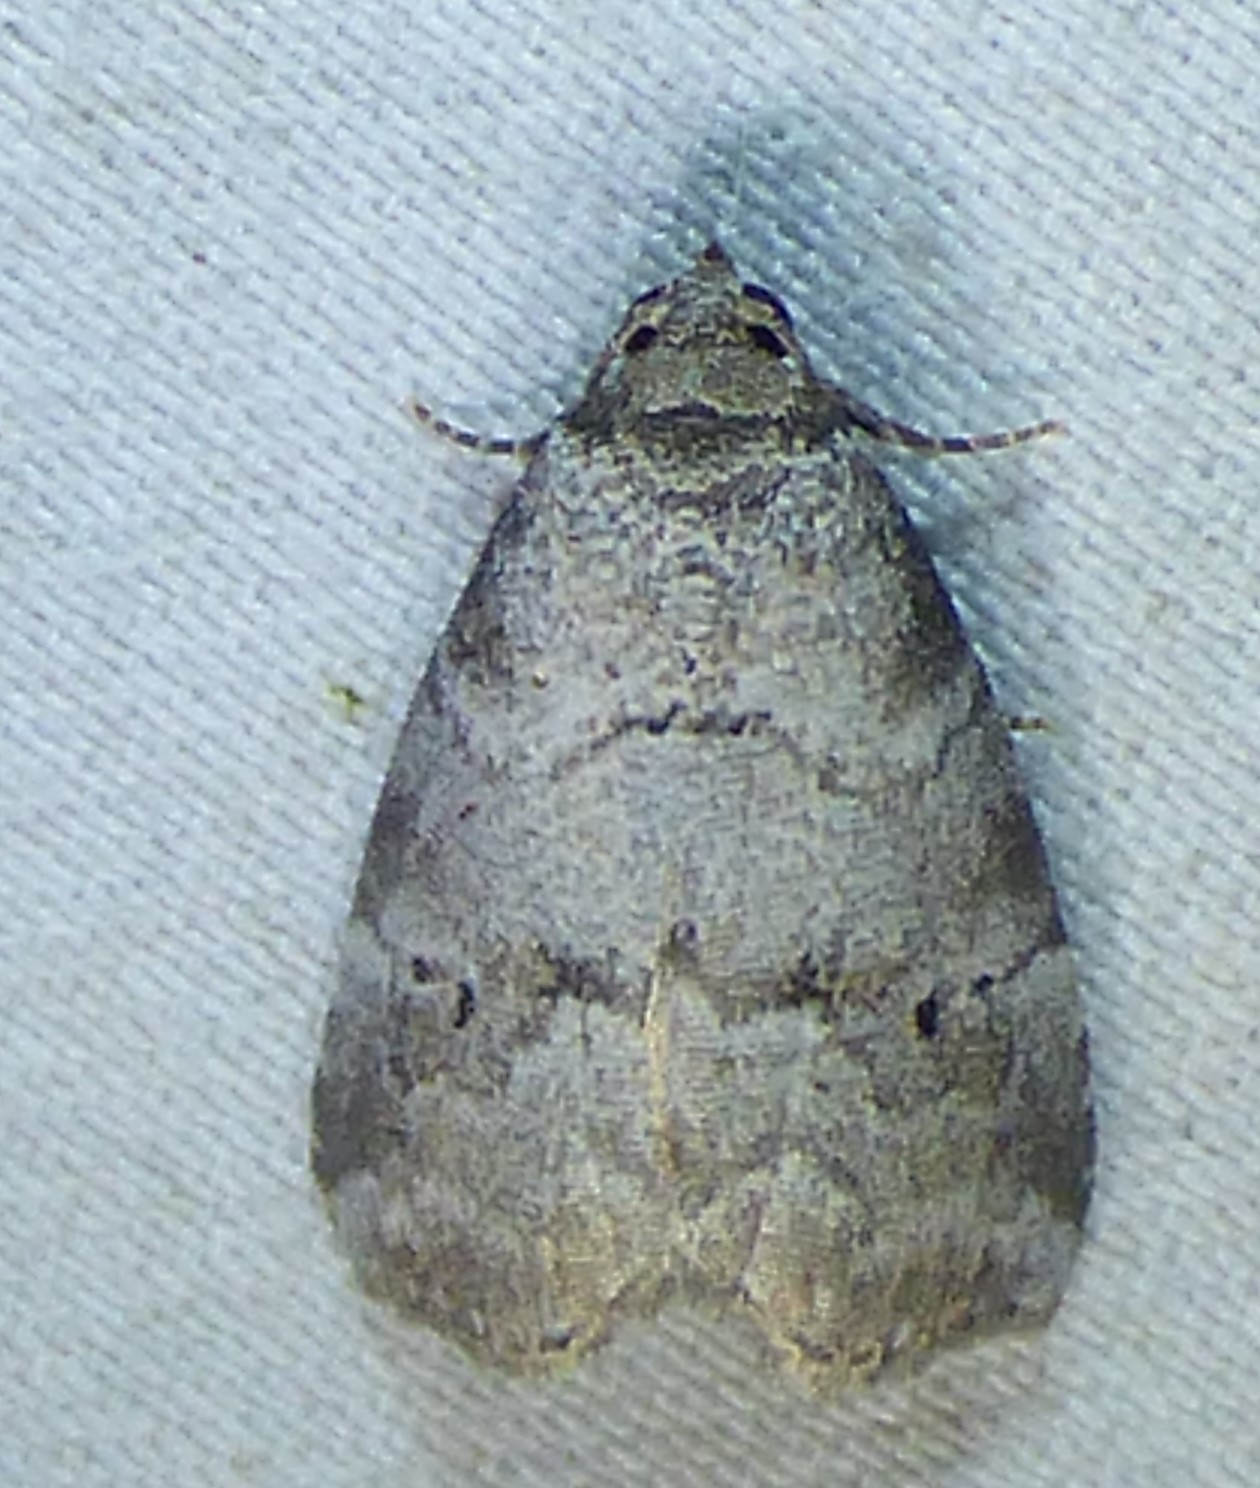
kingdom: Animalia
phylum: Arthropoda
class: Insecta
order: Lepidoptera
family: Erebidae
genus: Hyperstrotia
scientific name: Hyperstrotia pervertens
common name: Dotted graylet
